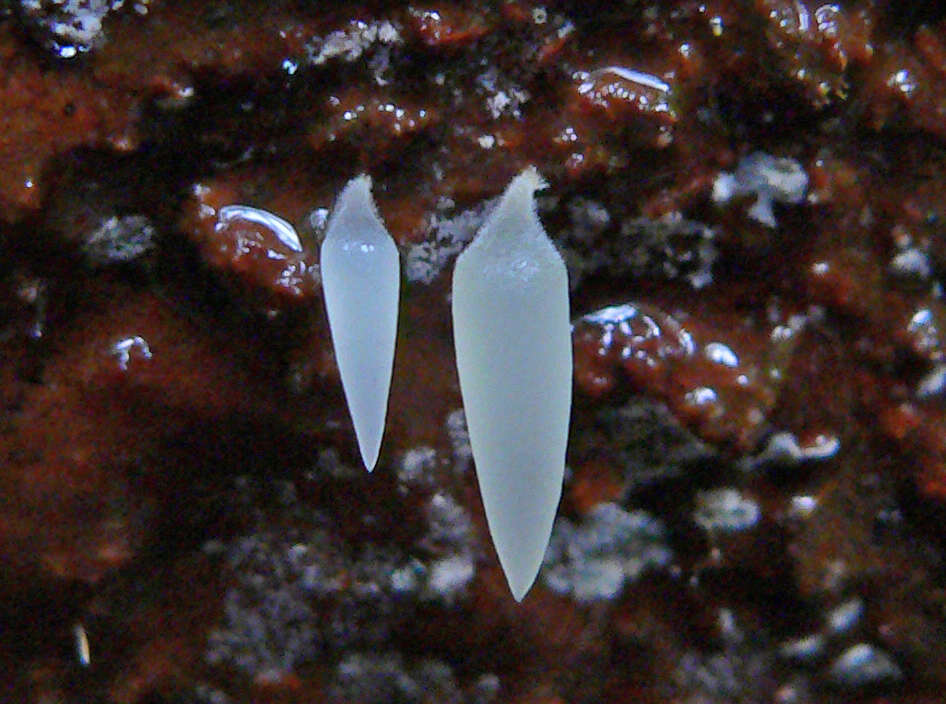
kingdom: Fungi
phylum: Basidiomycota
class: Agaricomycetes
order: Agaricales
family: Clavariaceae
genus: Mucronella
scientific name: Mucronella pendula
